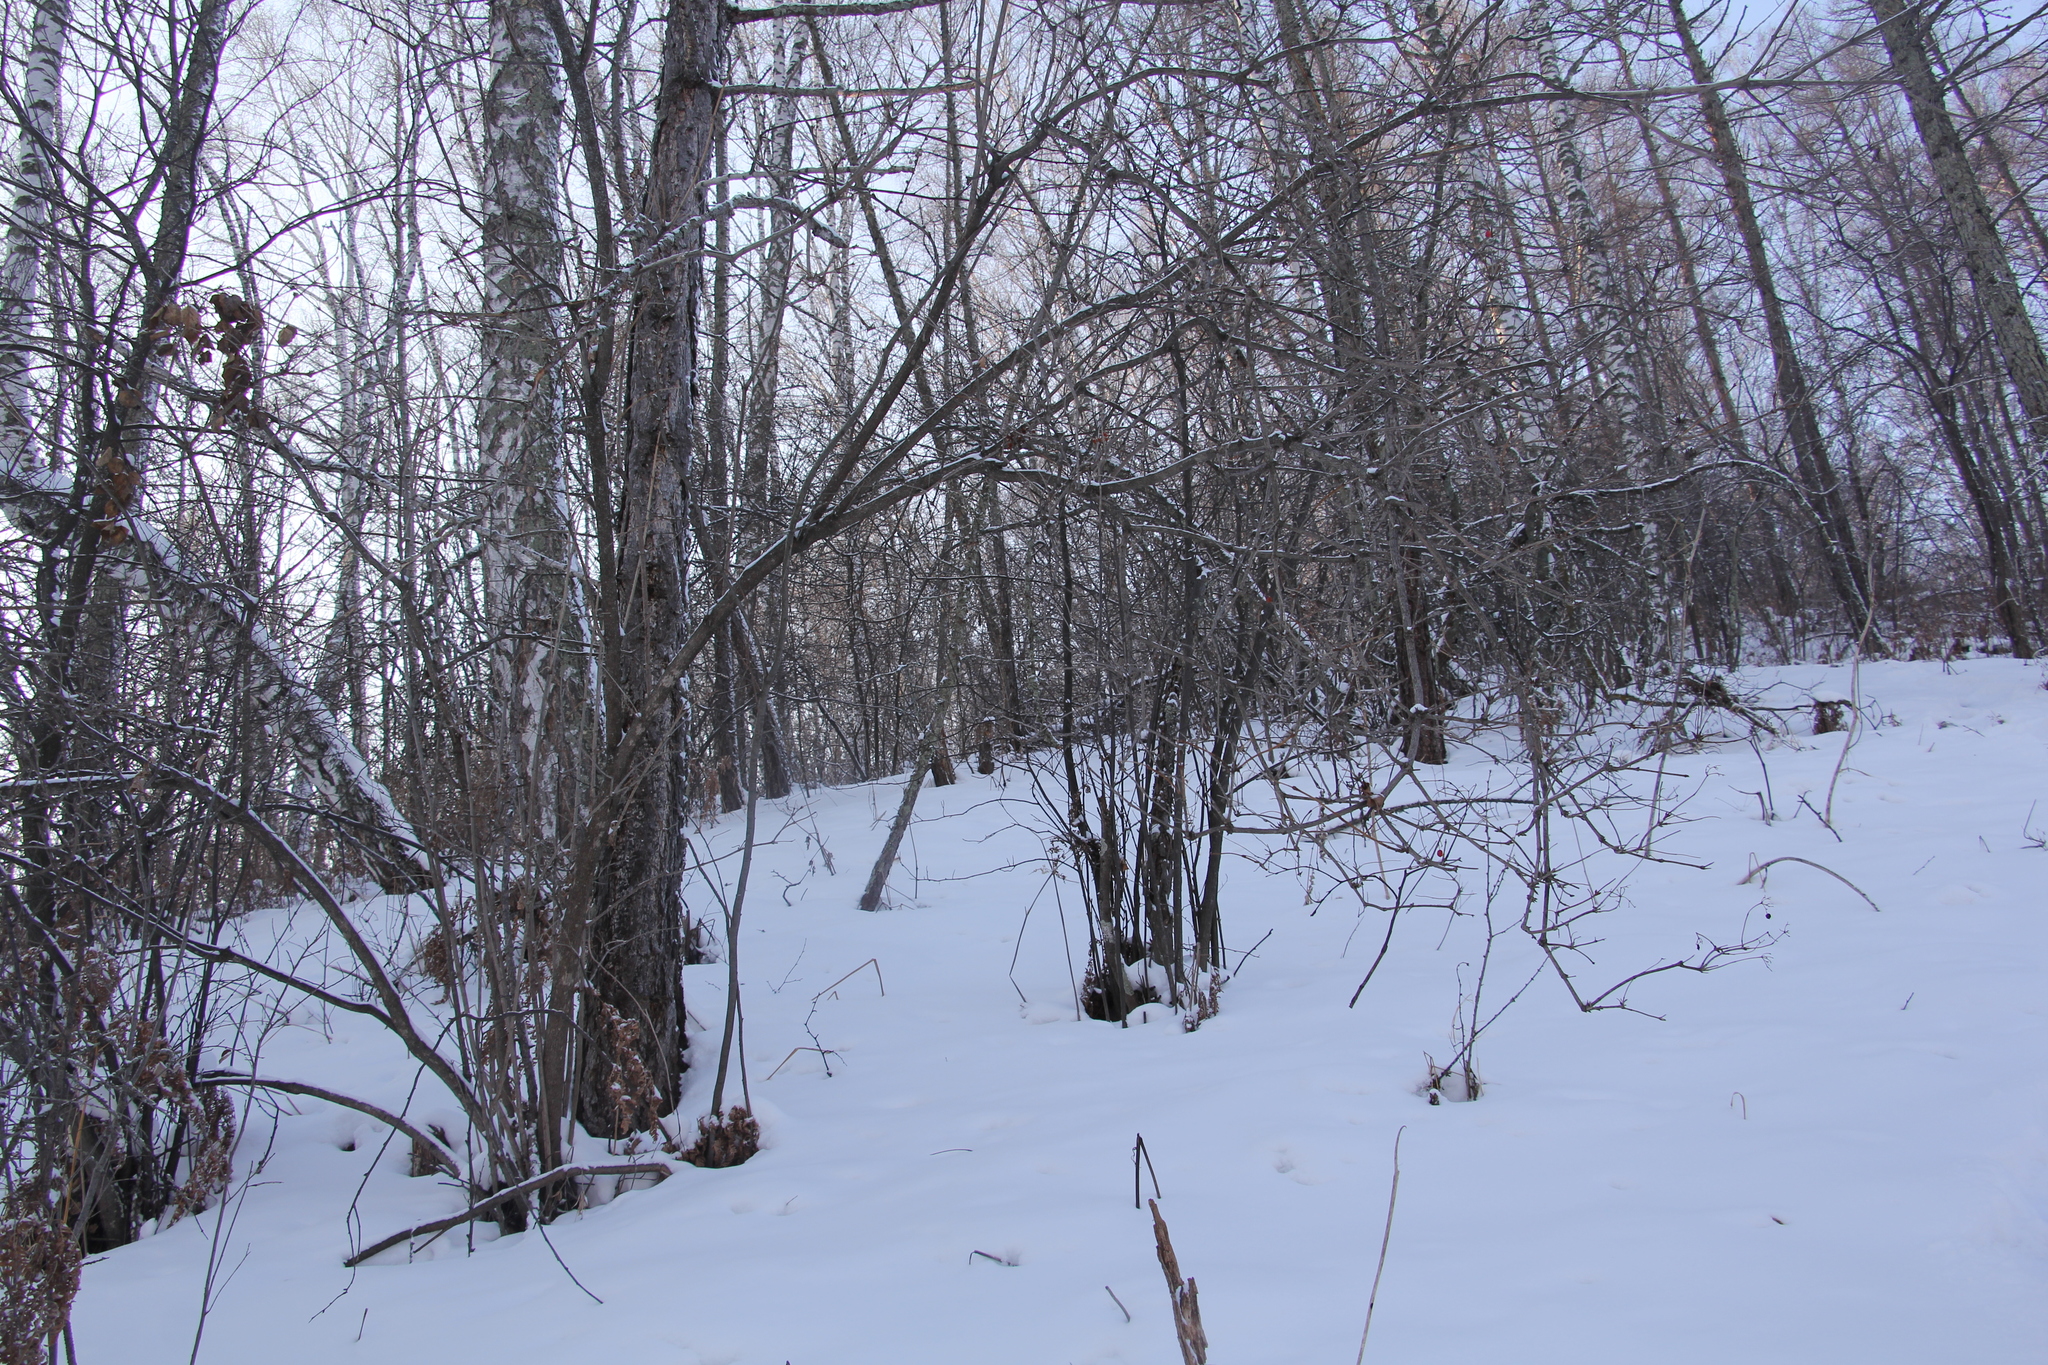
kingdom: Plantae
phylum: Tracheophyta
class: Magnoliopsida
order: Dipsacales
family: Viburnaceae
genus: Viburnum
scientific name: Viburnum opulus
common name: Guelder-rose
